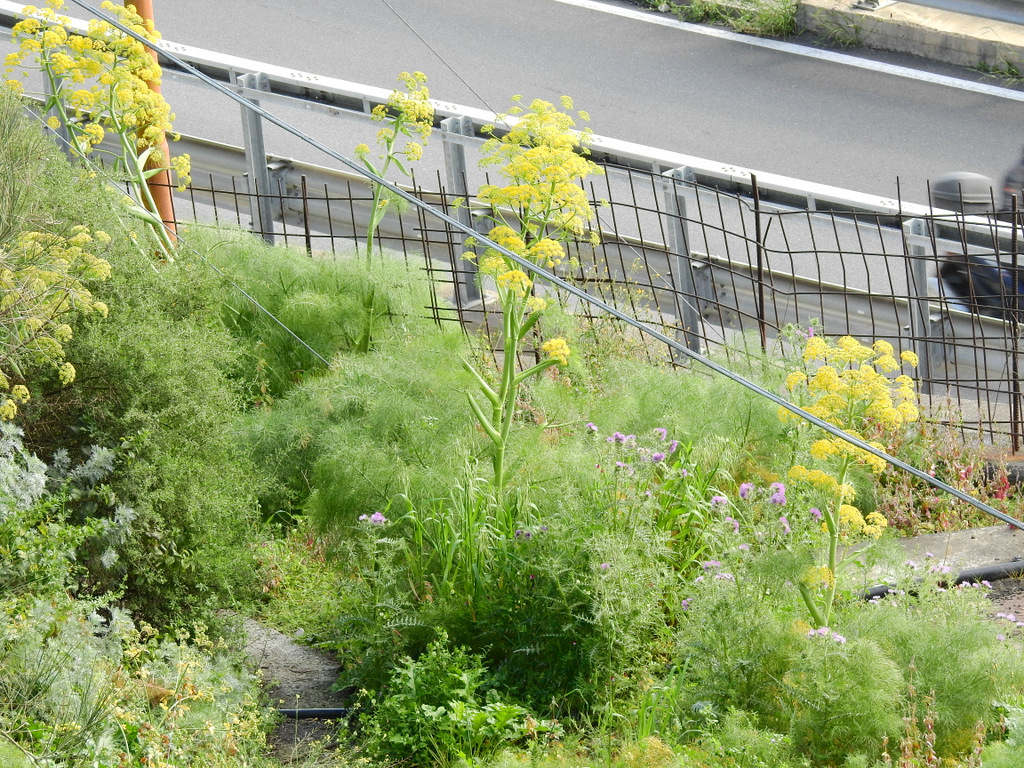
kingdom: Plantae
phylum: Tracheophyta
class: Magnoliopsida
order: Apiales
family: Apiaceae
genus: Ferula
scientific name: Ferula communis
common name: Giant fennel
